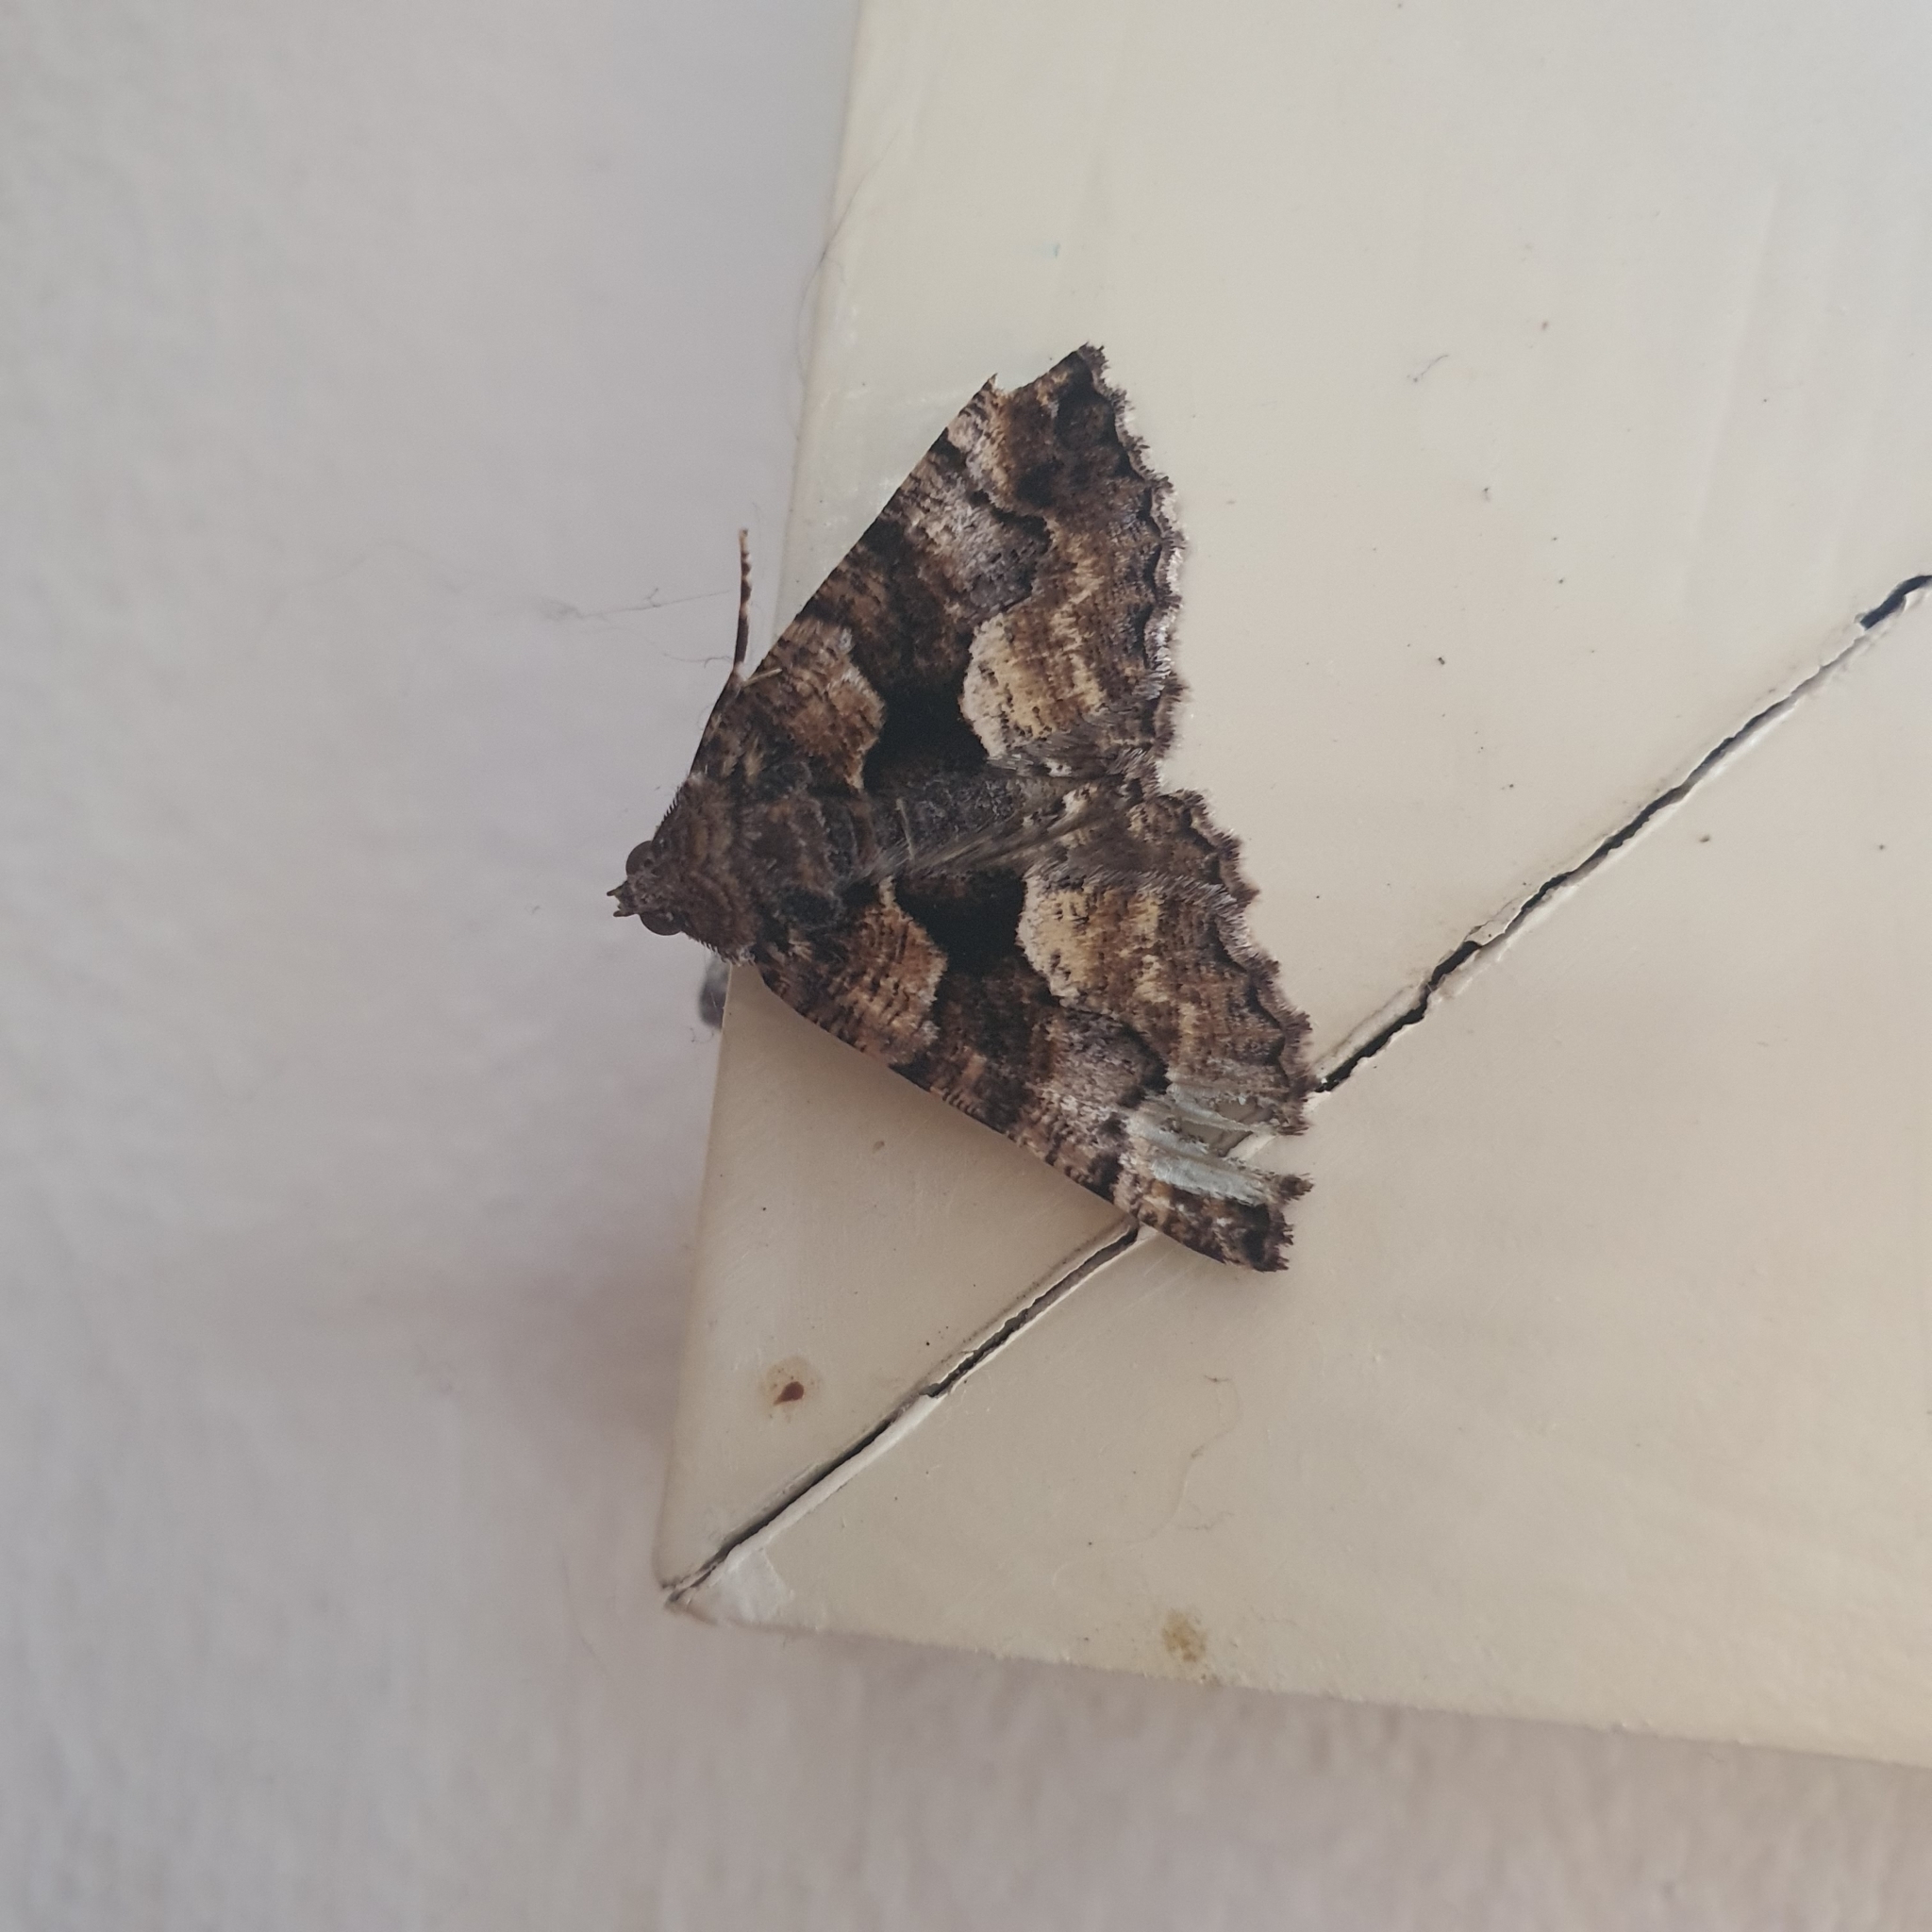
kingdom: Animalia
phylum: Arthropoda
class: Insecta
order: Lepidoptera
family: Geometridae
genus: Gastrina
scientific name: Gastrina cristaria
